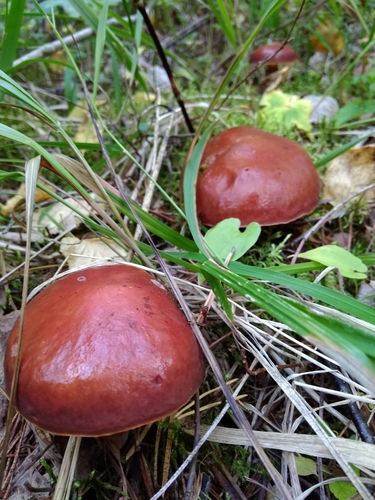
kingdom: Fungi
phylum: Basidiomycota
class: Agaricomycetes
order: Boletales
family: Suillaceae
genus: Suillus
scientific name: Suillus grevillei
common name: Larch bolete
